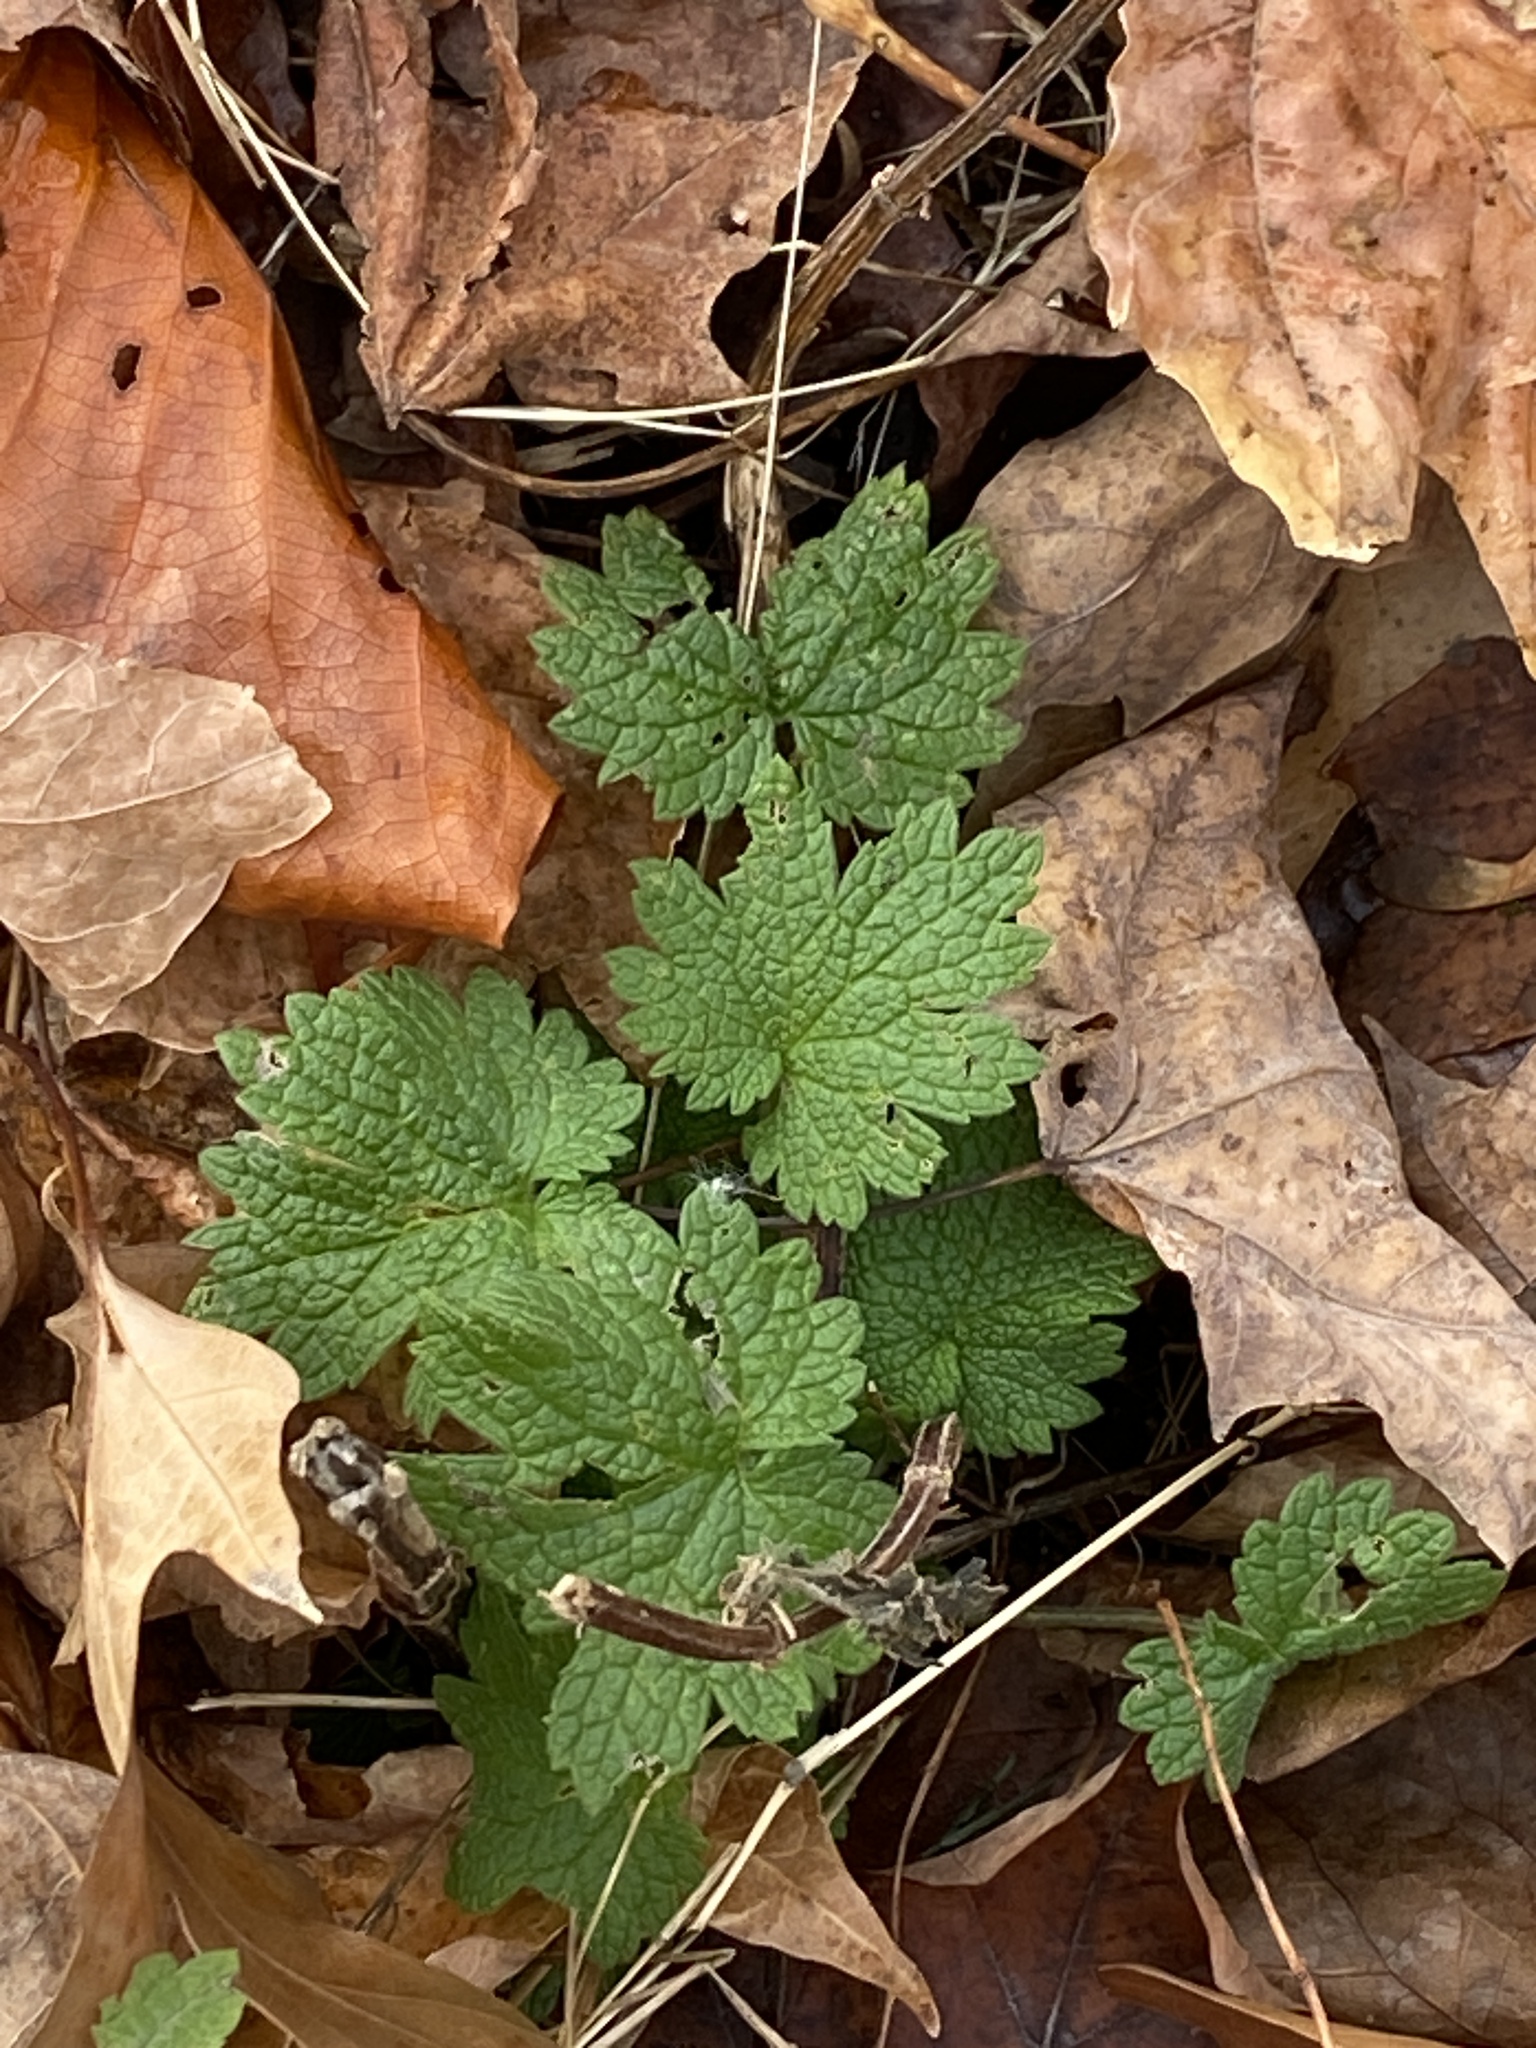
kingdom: Plantae
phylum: Tracheophyta
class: Magnoliopsida
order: Lamiales
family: Lamiaceae
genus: Leonurus
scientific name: Leonurus cardiaca
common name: Motherwort
